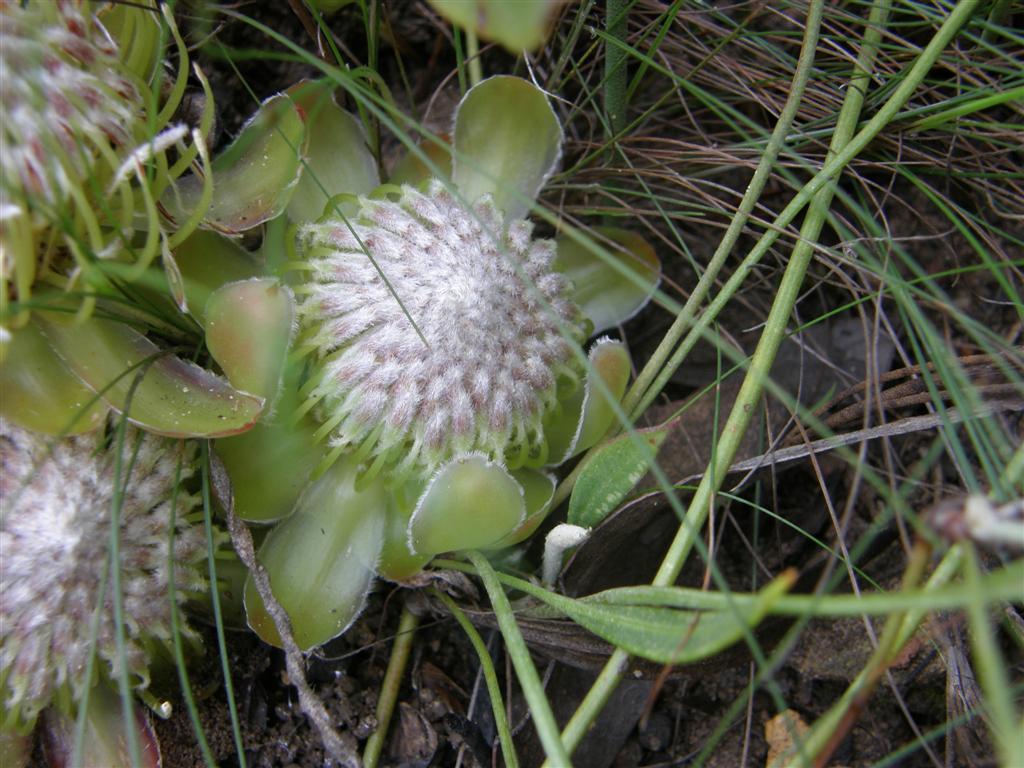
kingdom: Plantae
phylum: Tracheophyta
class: Magnoliopsida
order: Proteales
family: Proteaceae
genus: Protea
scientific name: Protea acaulos
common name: Common ground sugarbush
